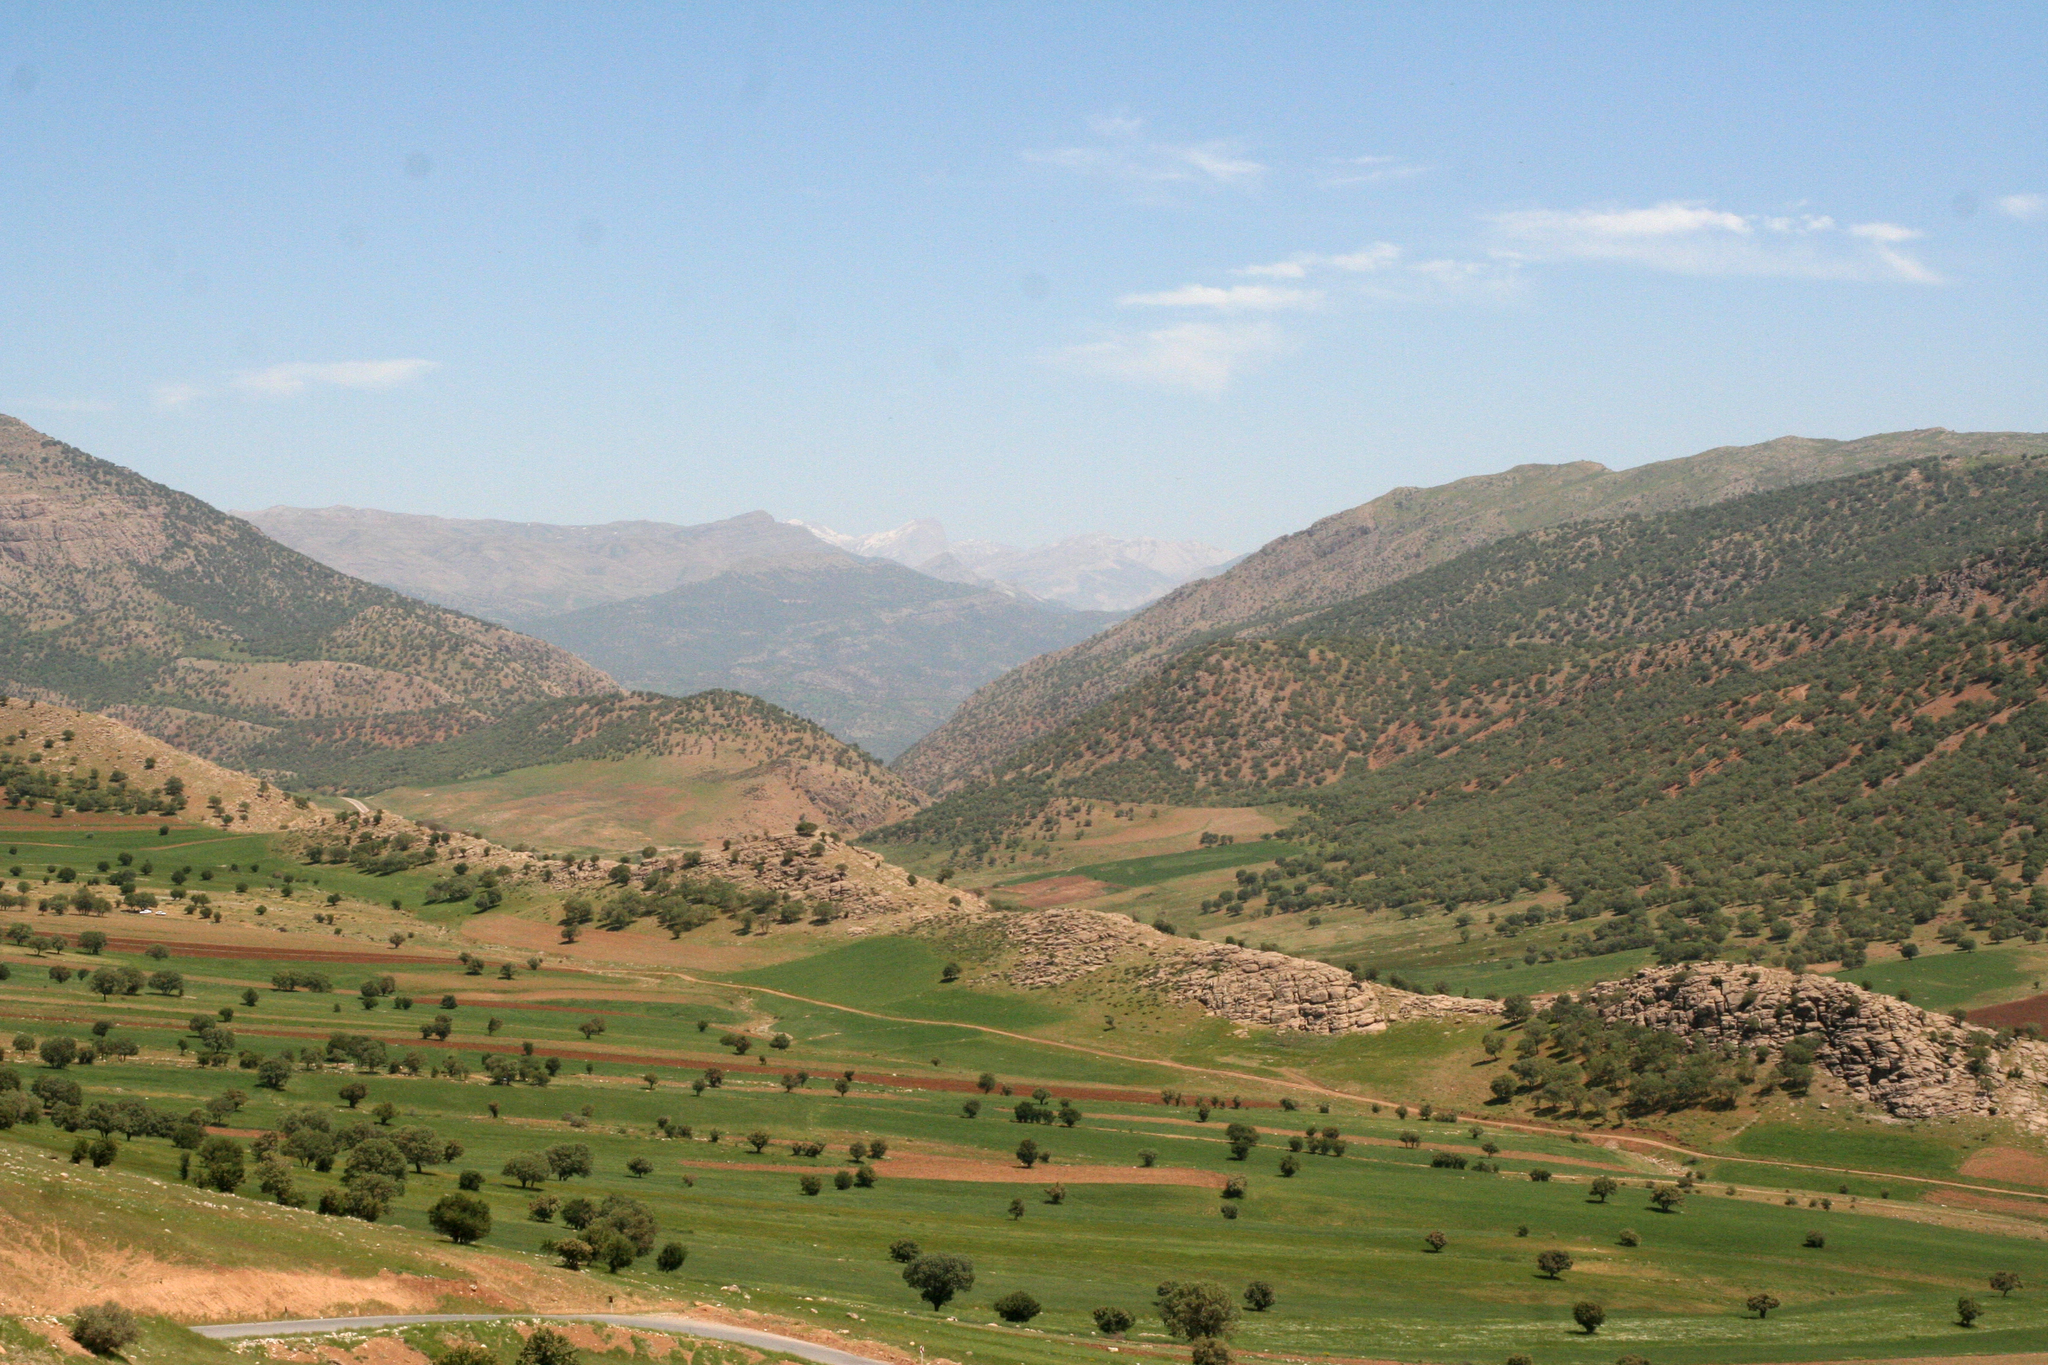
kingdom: Plantae
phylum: Tracheophyta
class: Magnoliopsida
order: Fagales
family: Fagaceae
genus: Quercus
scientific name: Quercus brantii
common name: Brant oak
